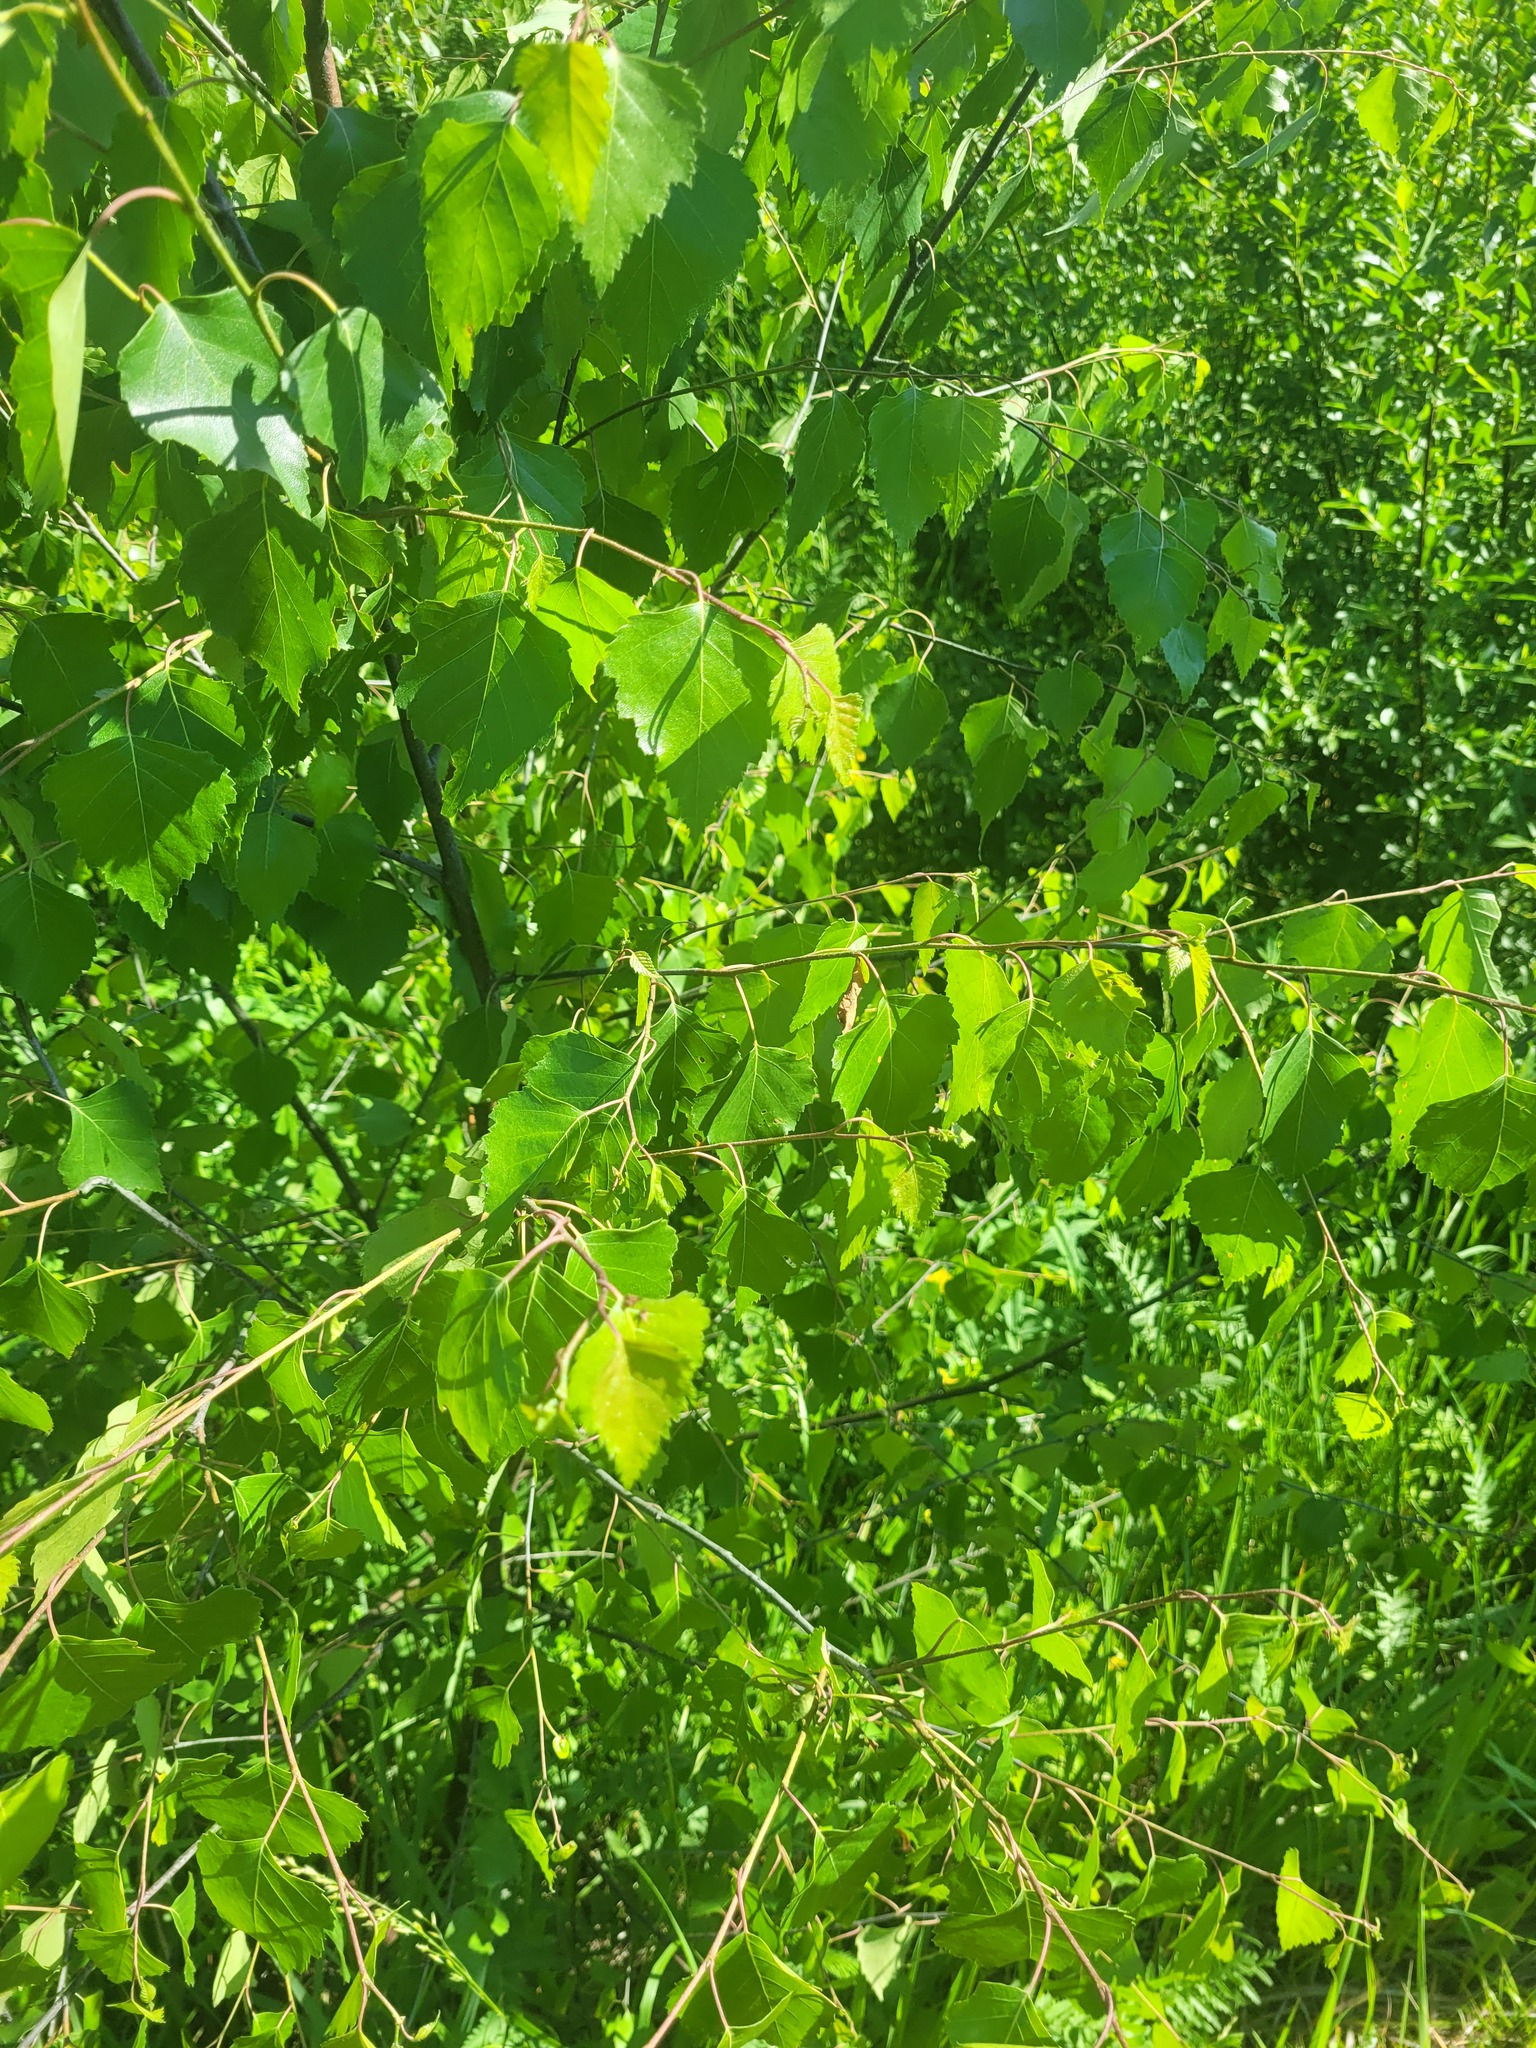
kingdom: Plantae
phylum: Tracheophyta
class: Magnoliopsida
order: Fagales
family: Betulaceae
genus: Betula
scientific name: Betula pendula
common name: Silver birch
